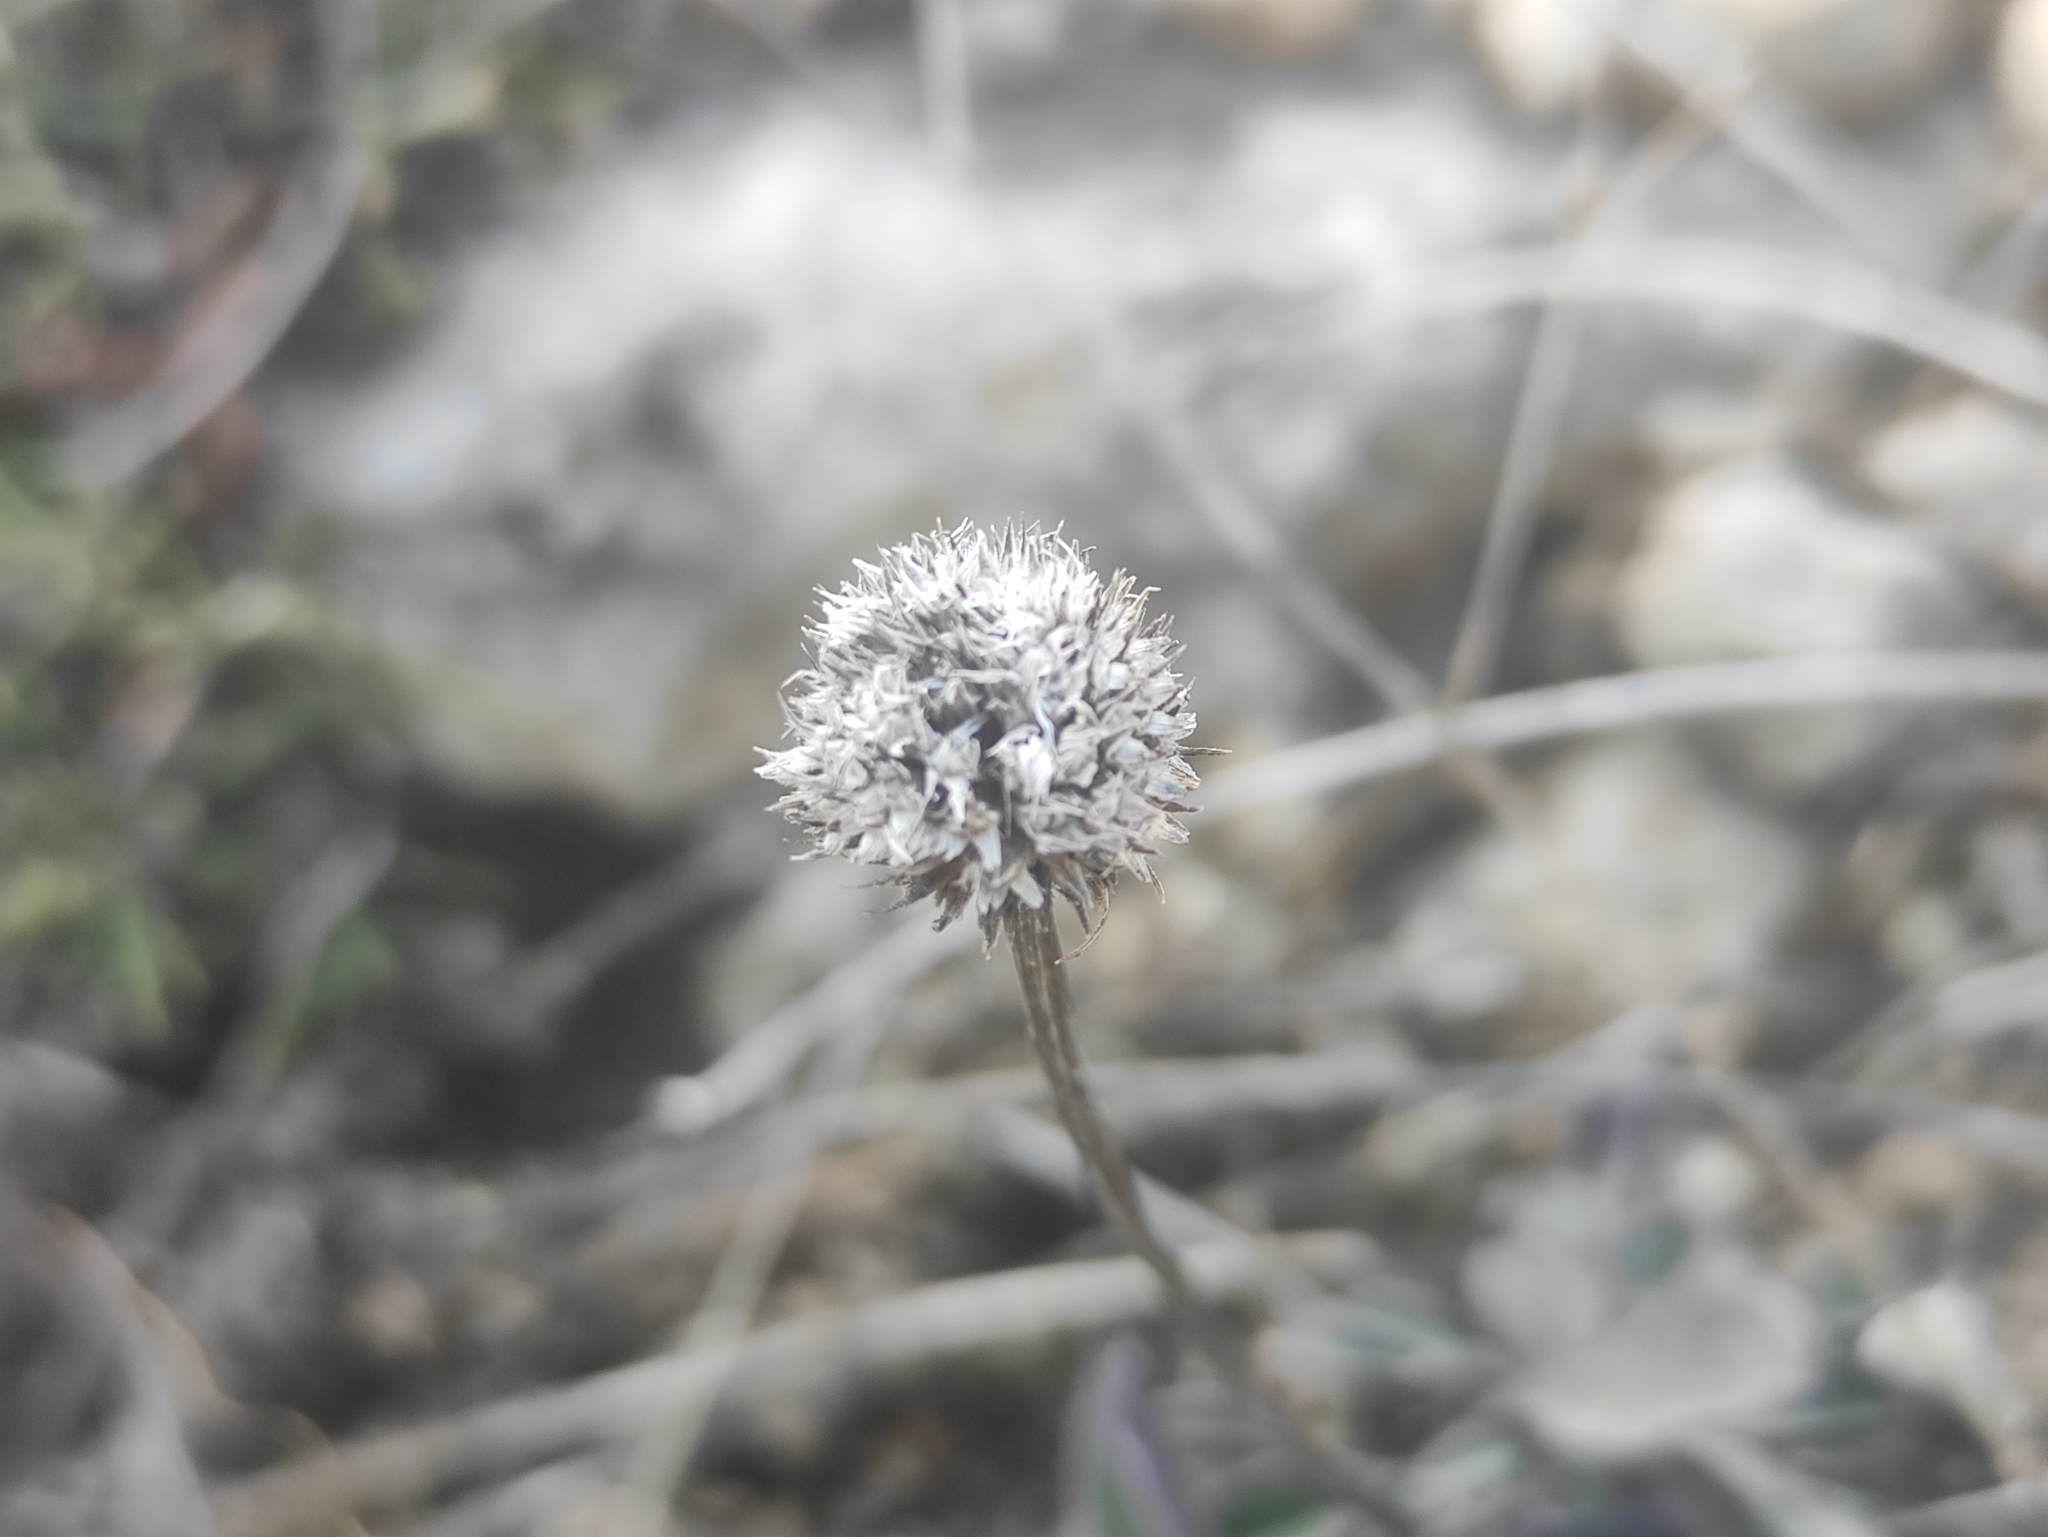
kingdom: Plantae
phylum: Tracheophyta
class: Magnoliopsida
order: Lamiales
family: Plantaginaceae
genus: Globularia
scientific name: Globularia vulgaris
